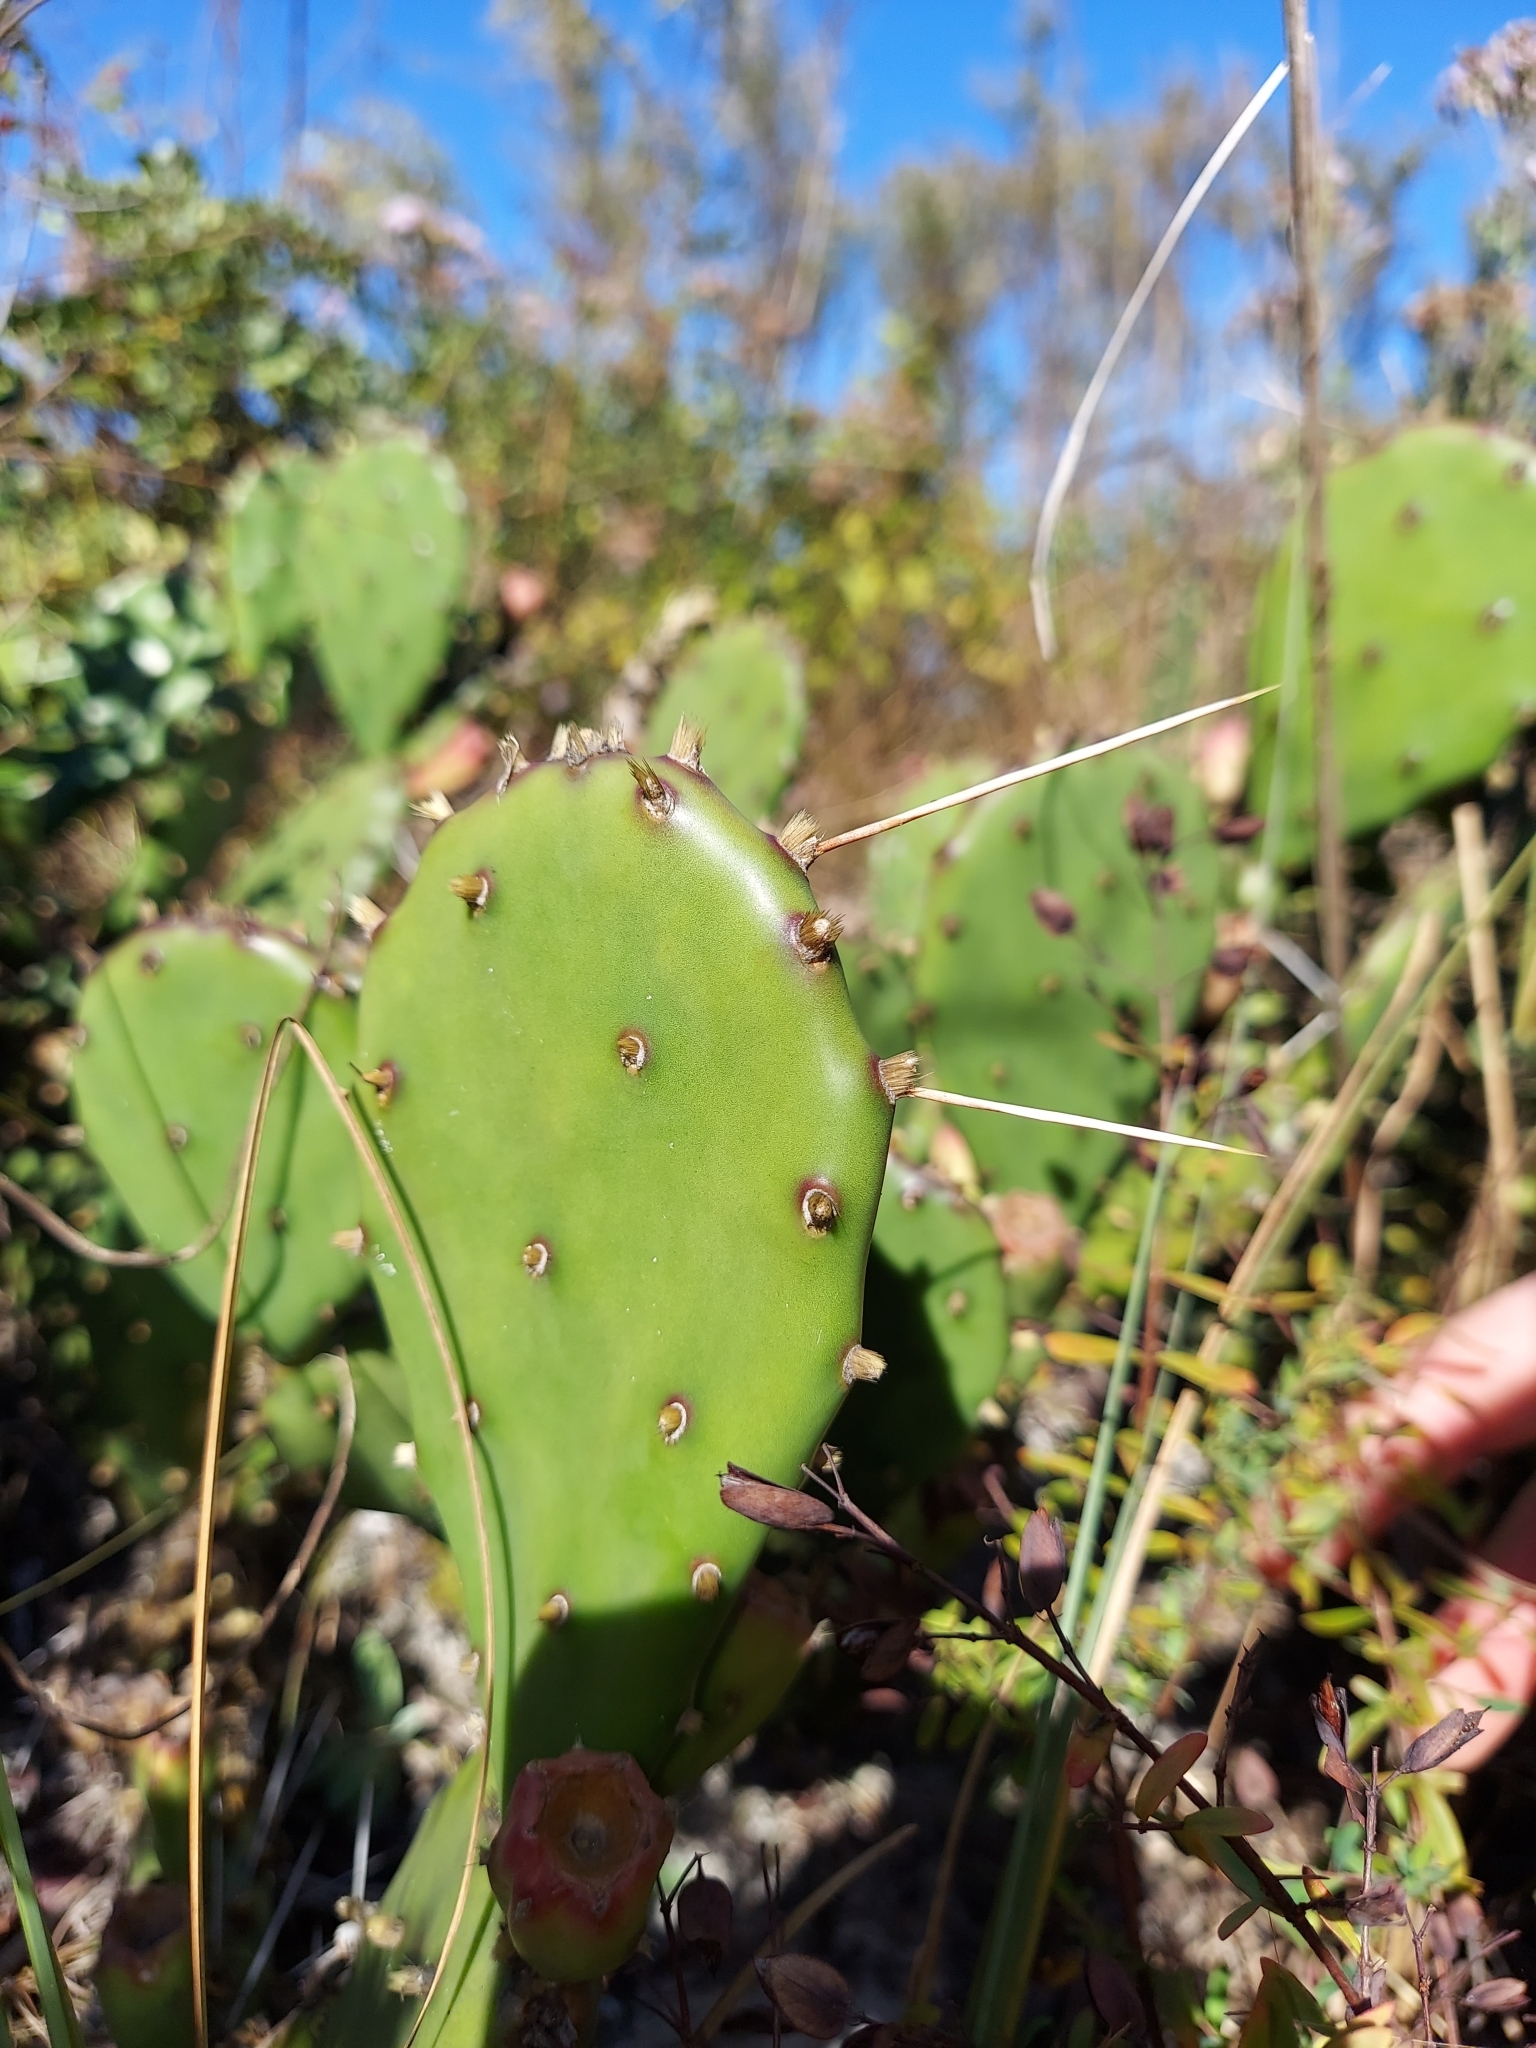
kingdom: Plantae
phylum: Tracheophyta
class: Magnoliopsida
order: Caryophyllales
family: Cactaceae
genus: Opuntia
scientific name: Opuntia austrina
